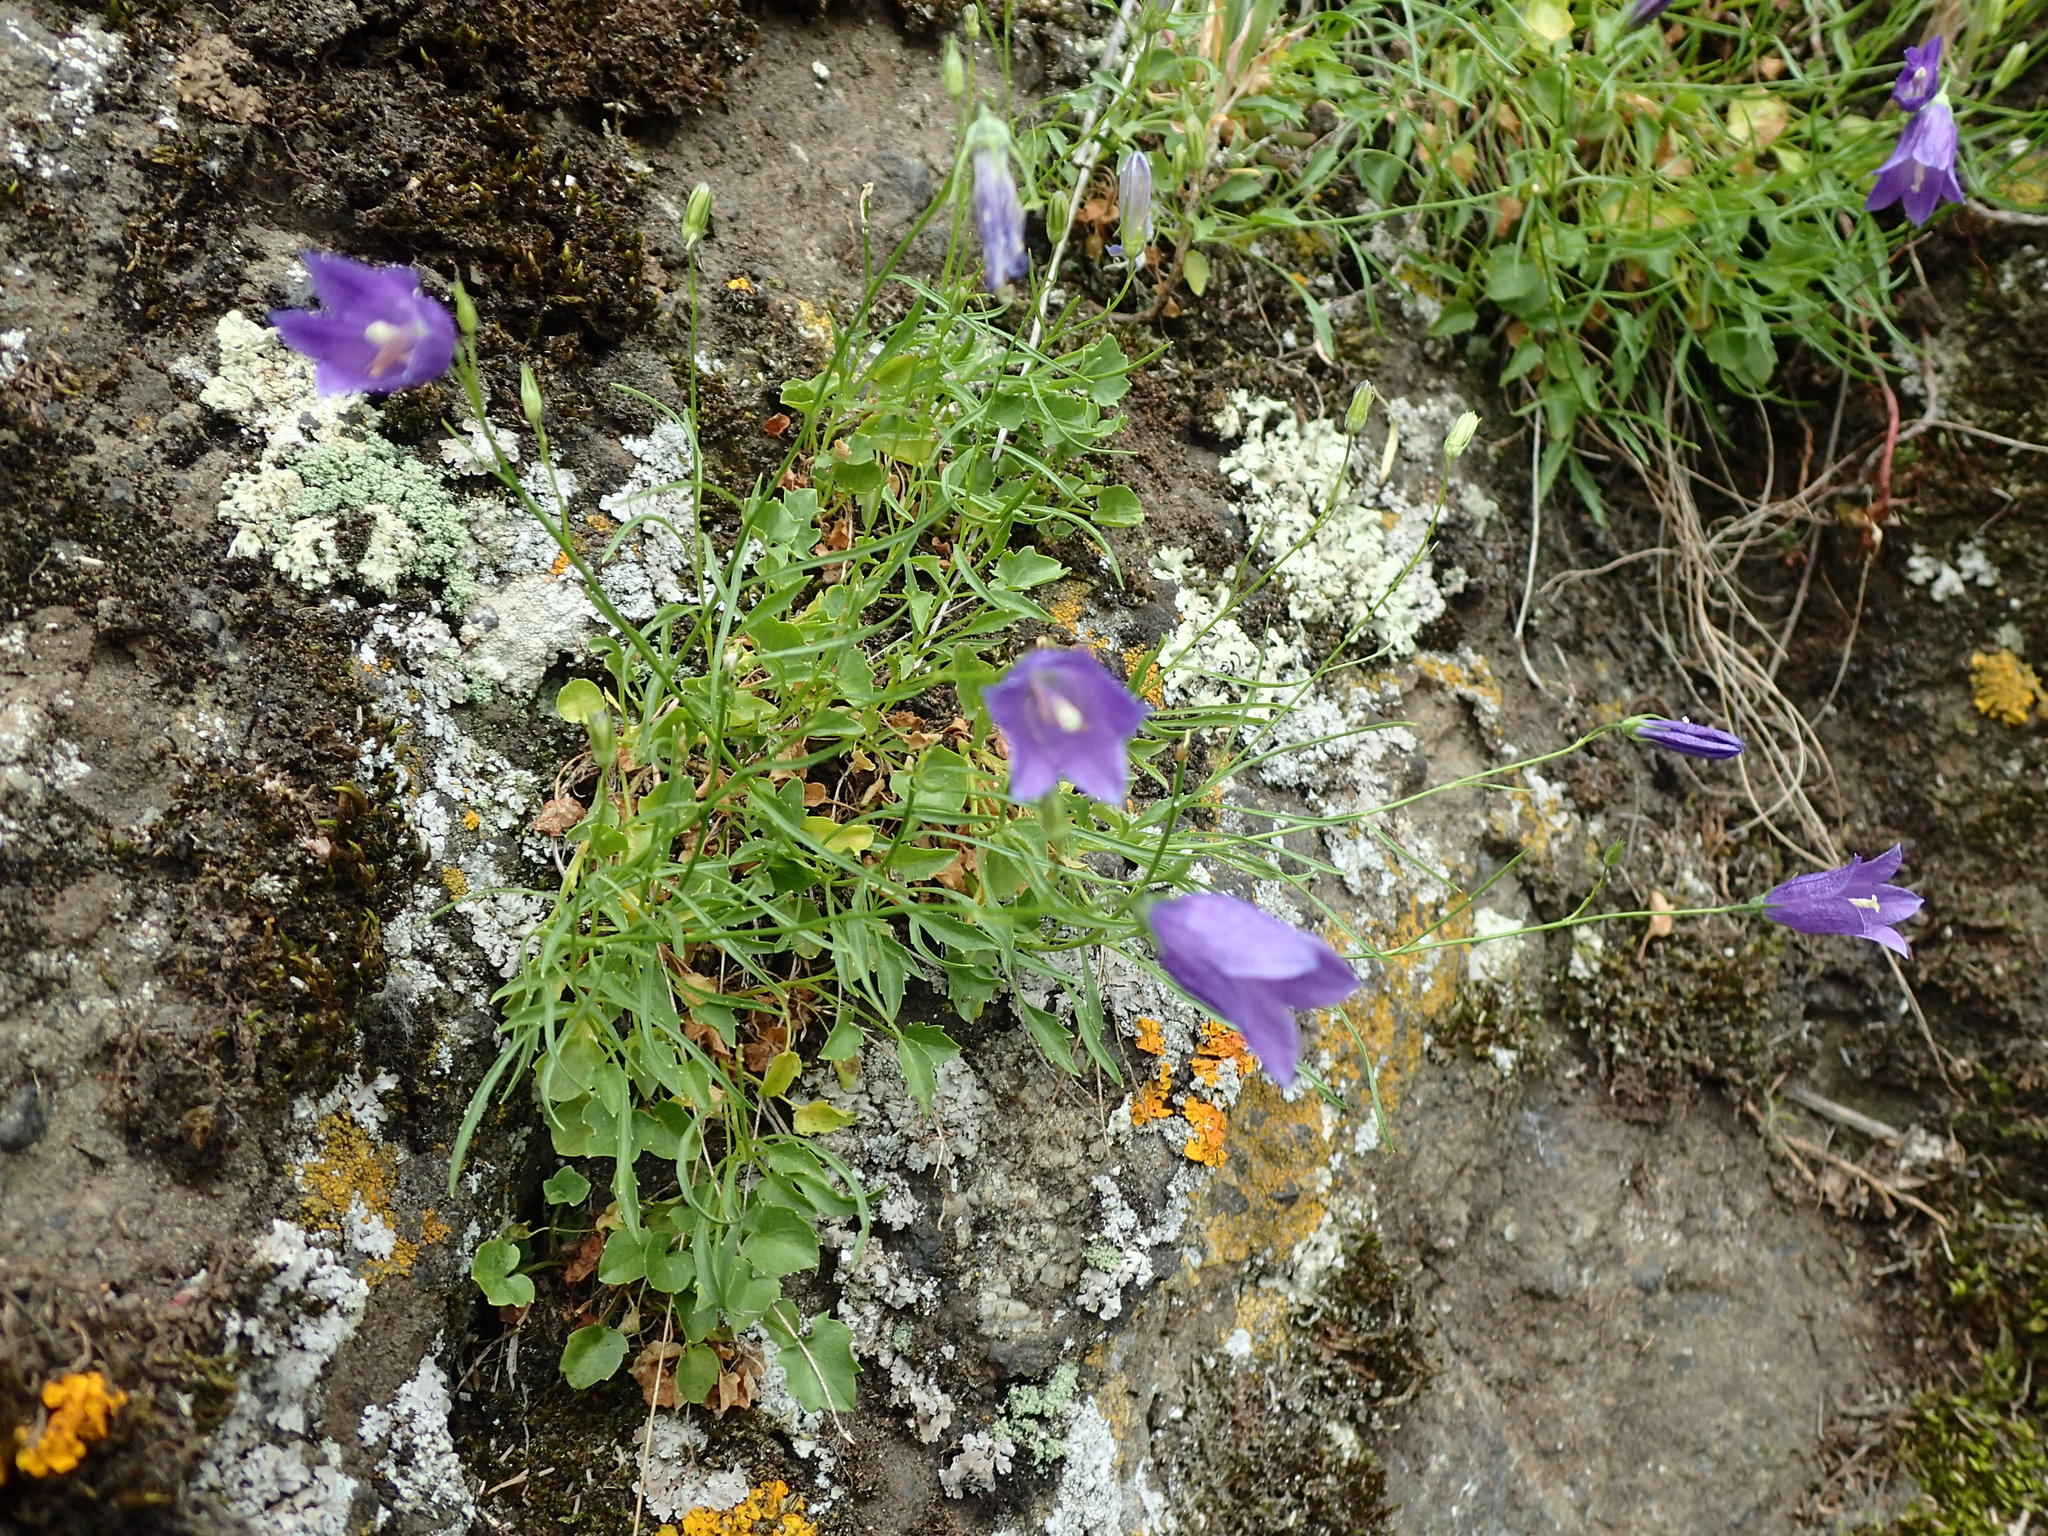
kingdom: Plantae
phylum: Tracheophyta
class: Magnoliopsida
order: Asterales
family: Campanulaceae
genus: Campanula
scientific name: Campanula rotundifolia
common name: Harebell
